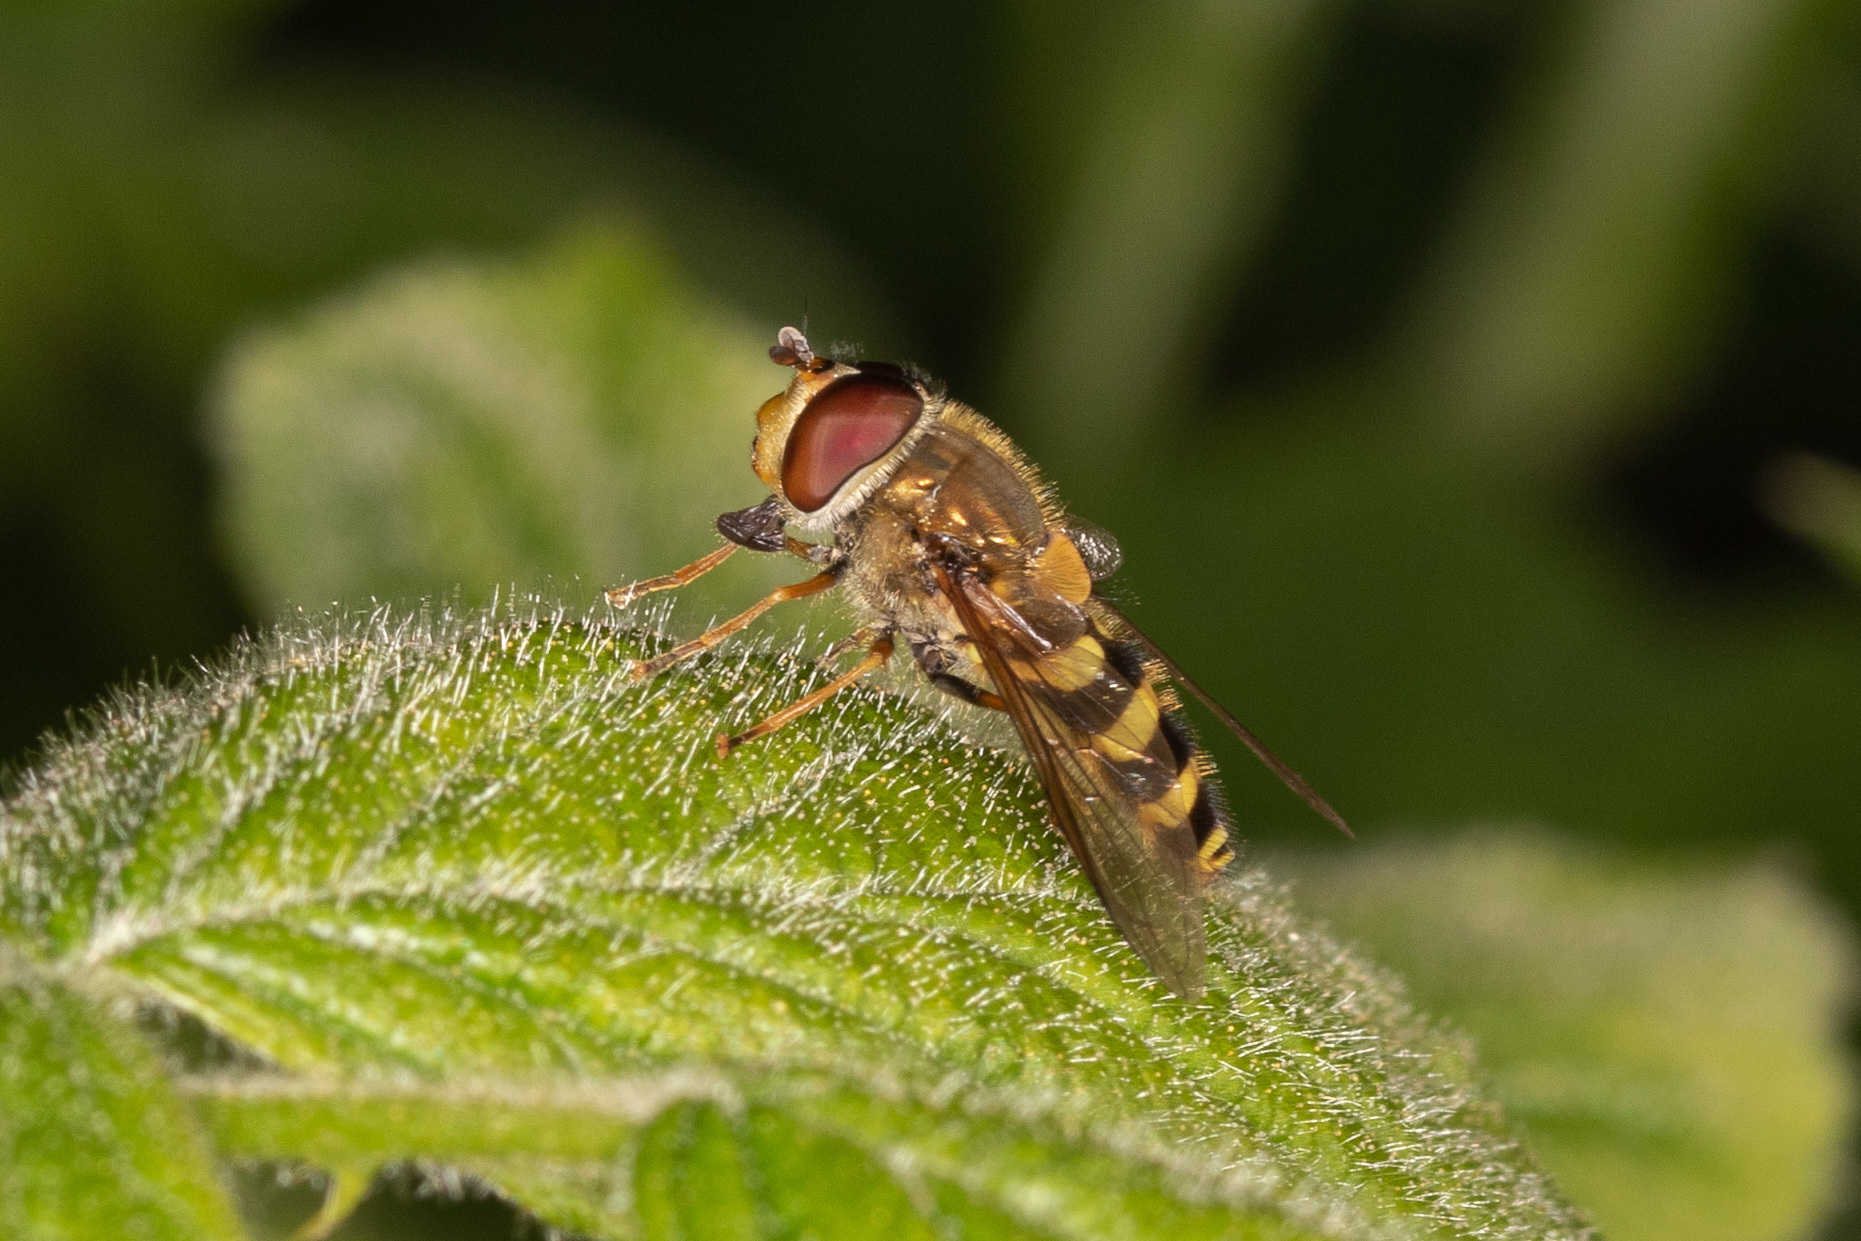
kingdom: Animalia
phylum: Arthropoda
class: Insecta
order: Diptera
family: Syrphidae
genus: Syrphus
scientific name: Syrphus
